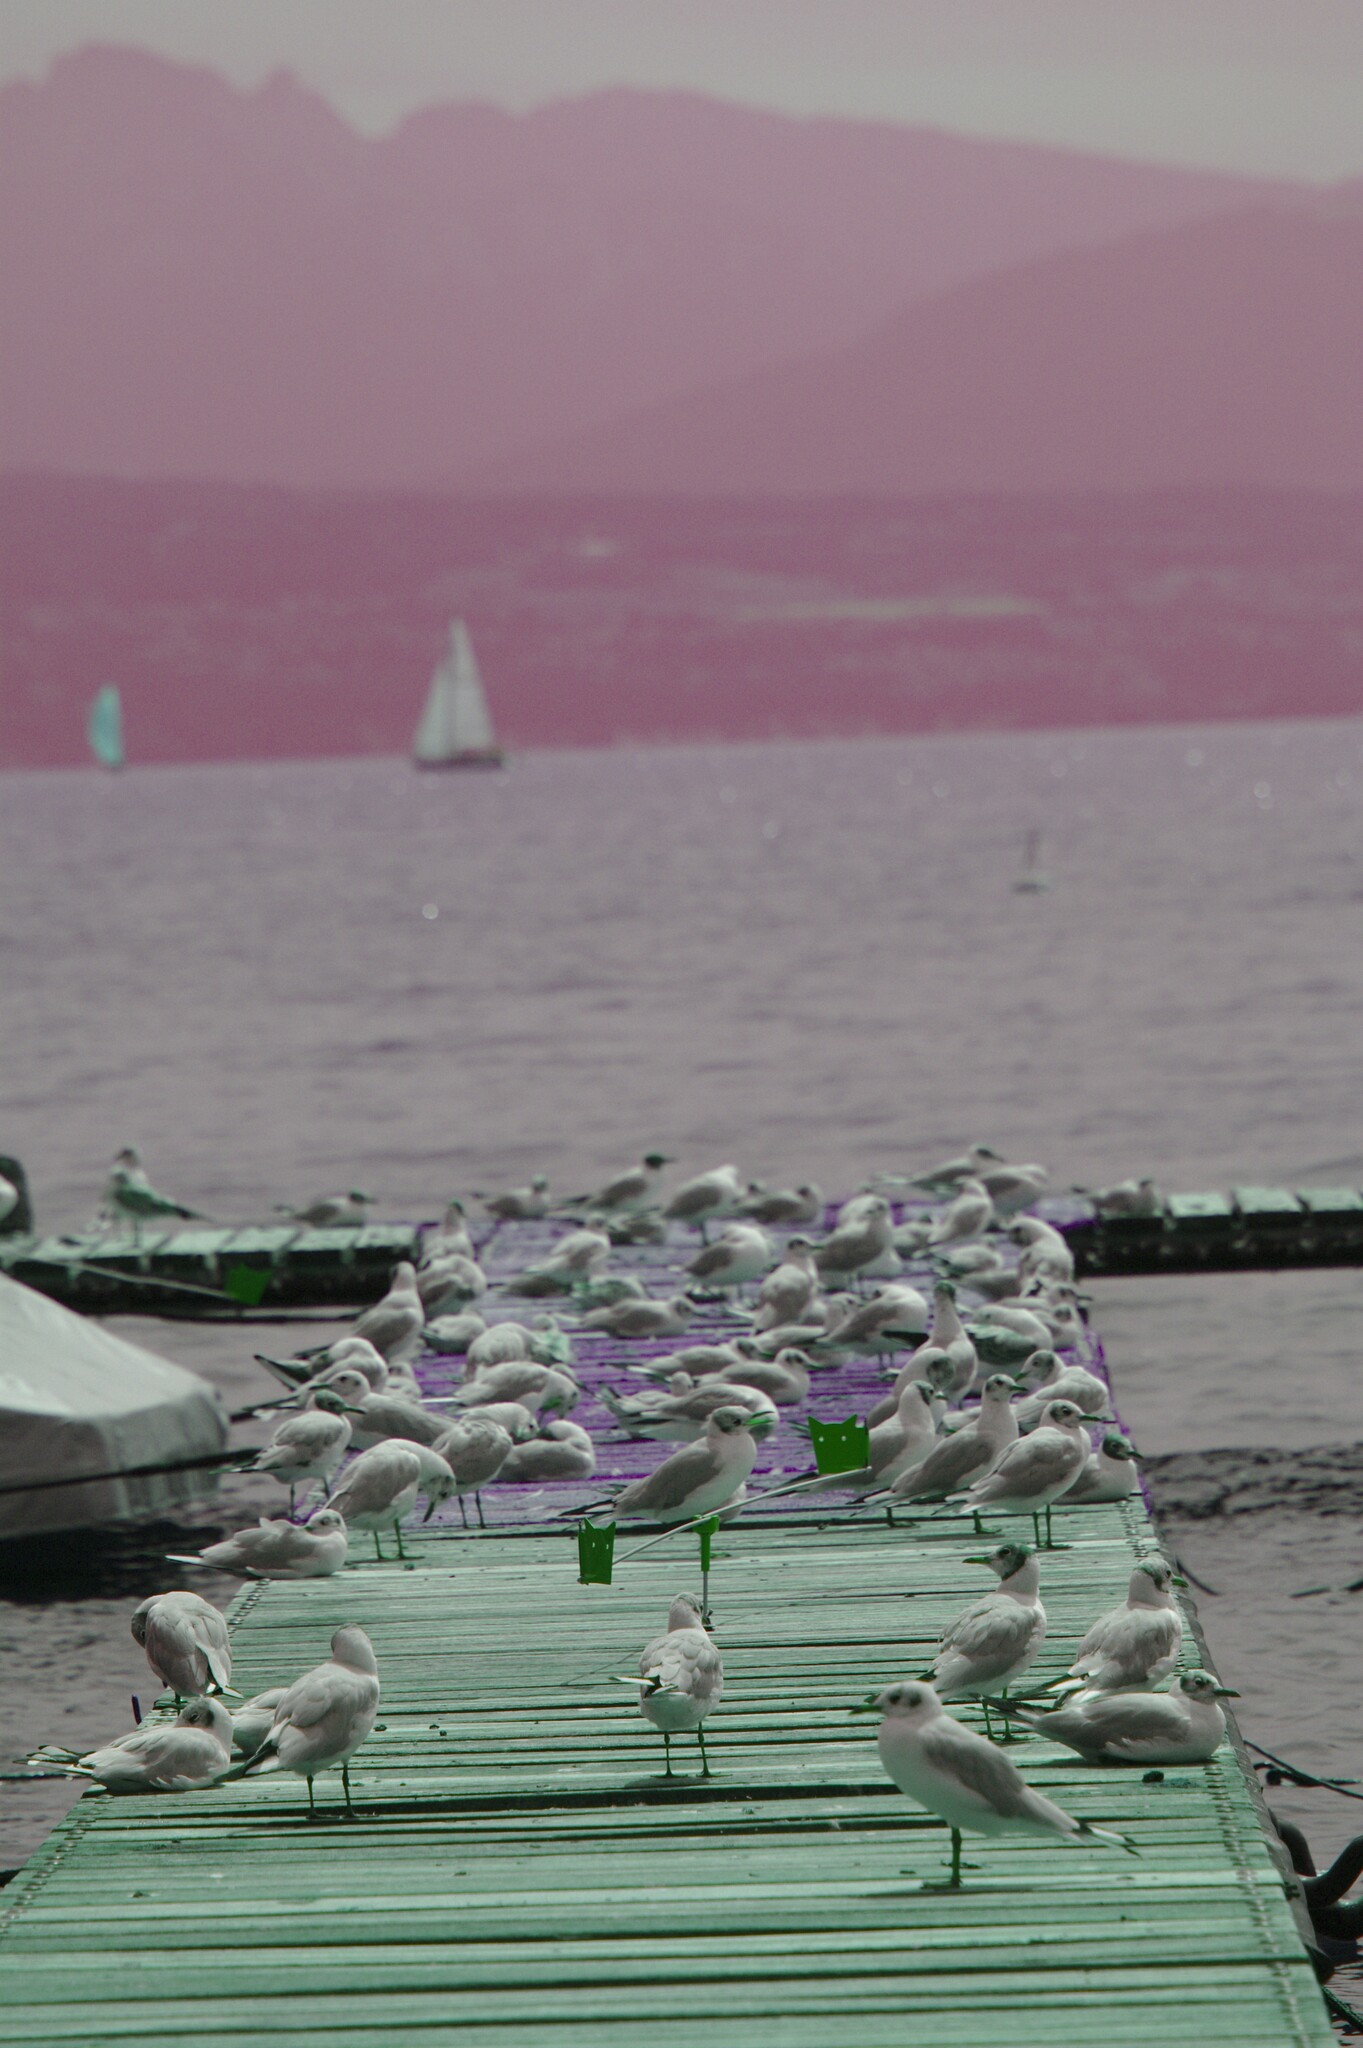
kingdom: Animalia
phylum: Chordata
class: Aves
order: Charadriiformes
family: Laridae
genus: Chroicocephalus
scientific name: Chroicocephalus ridibundus
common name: Black-headed gull
